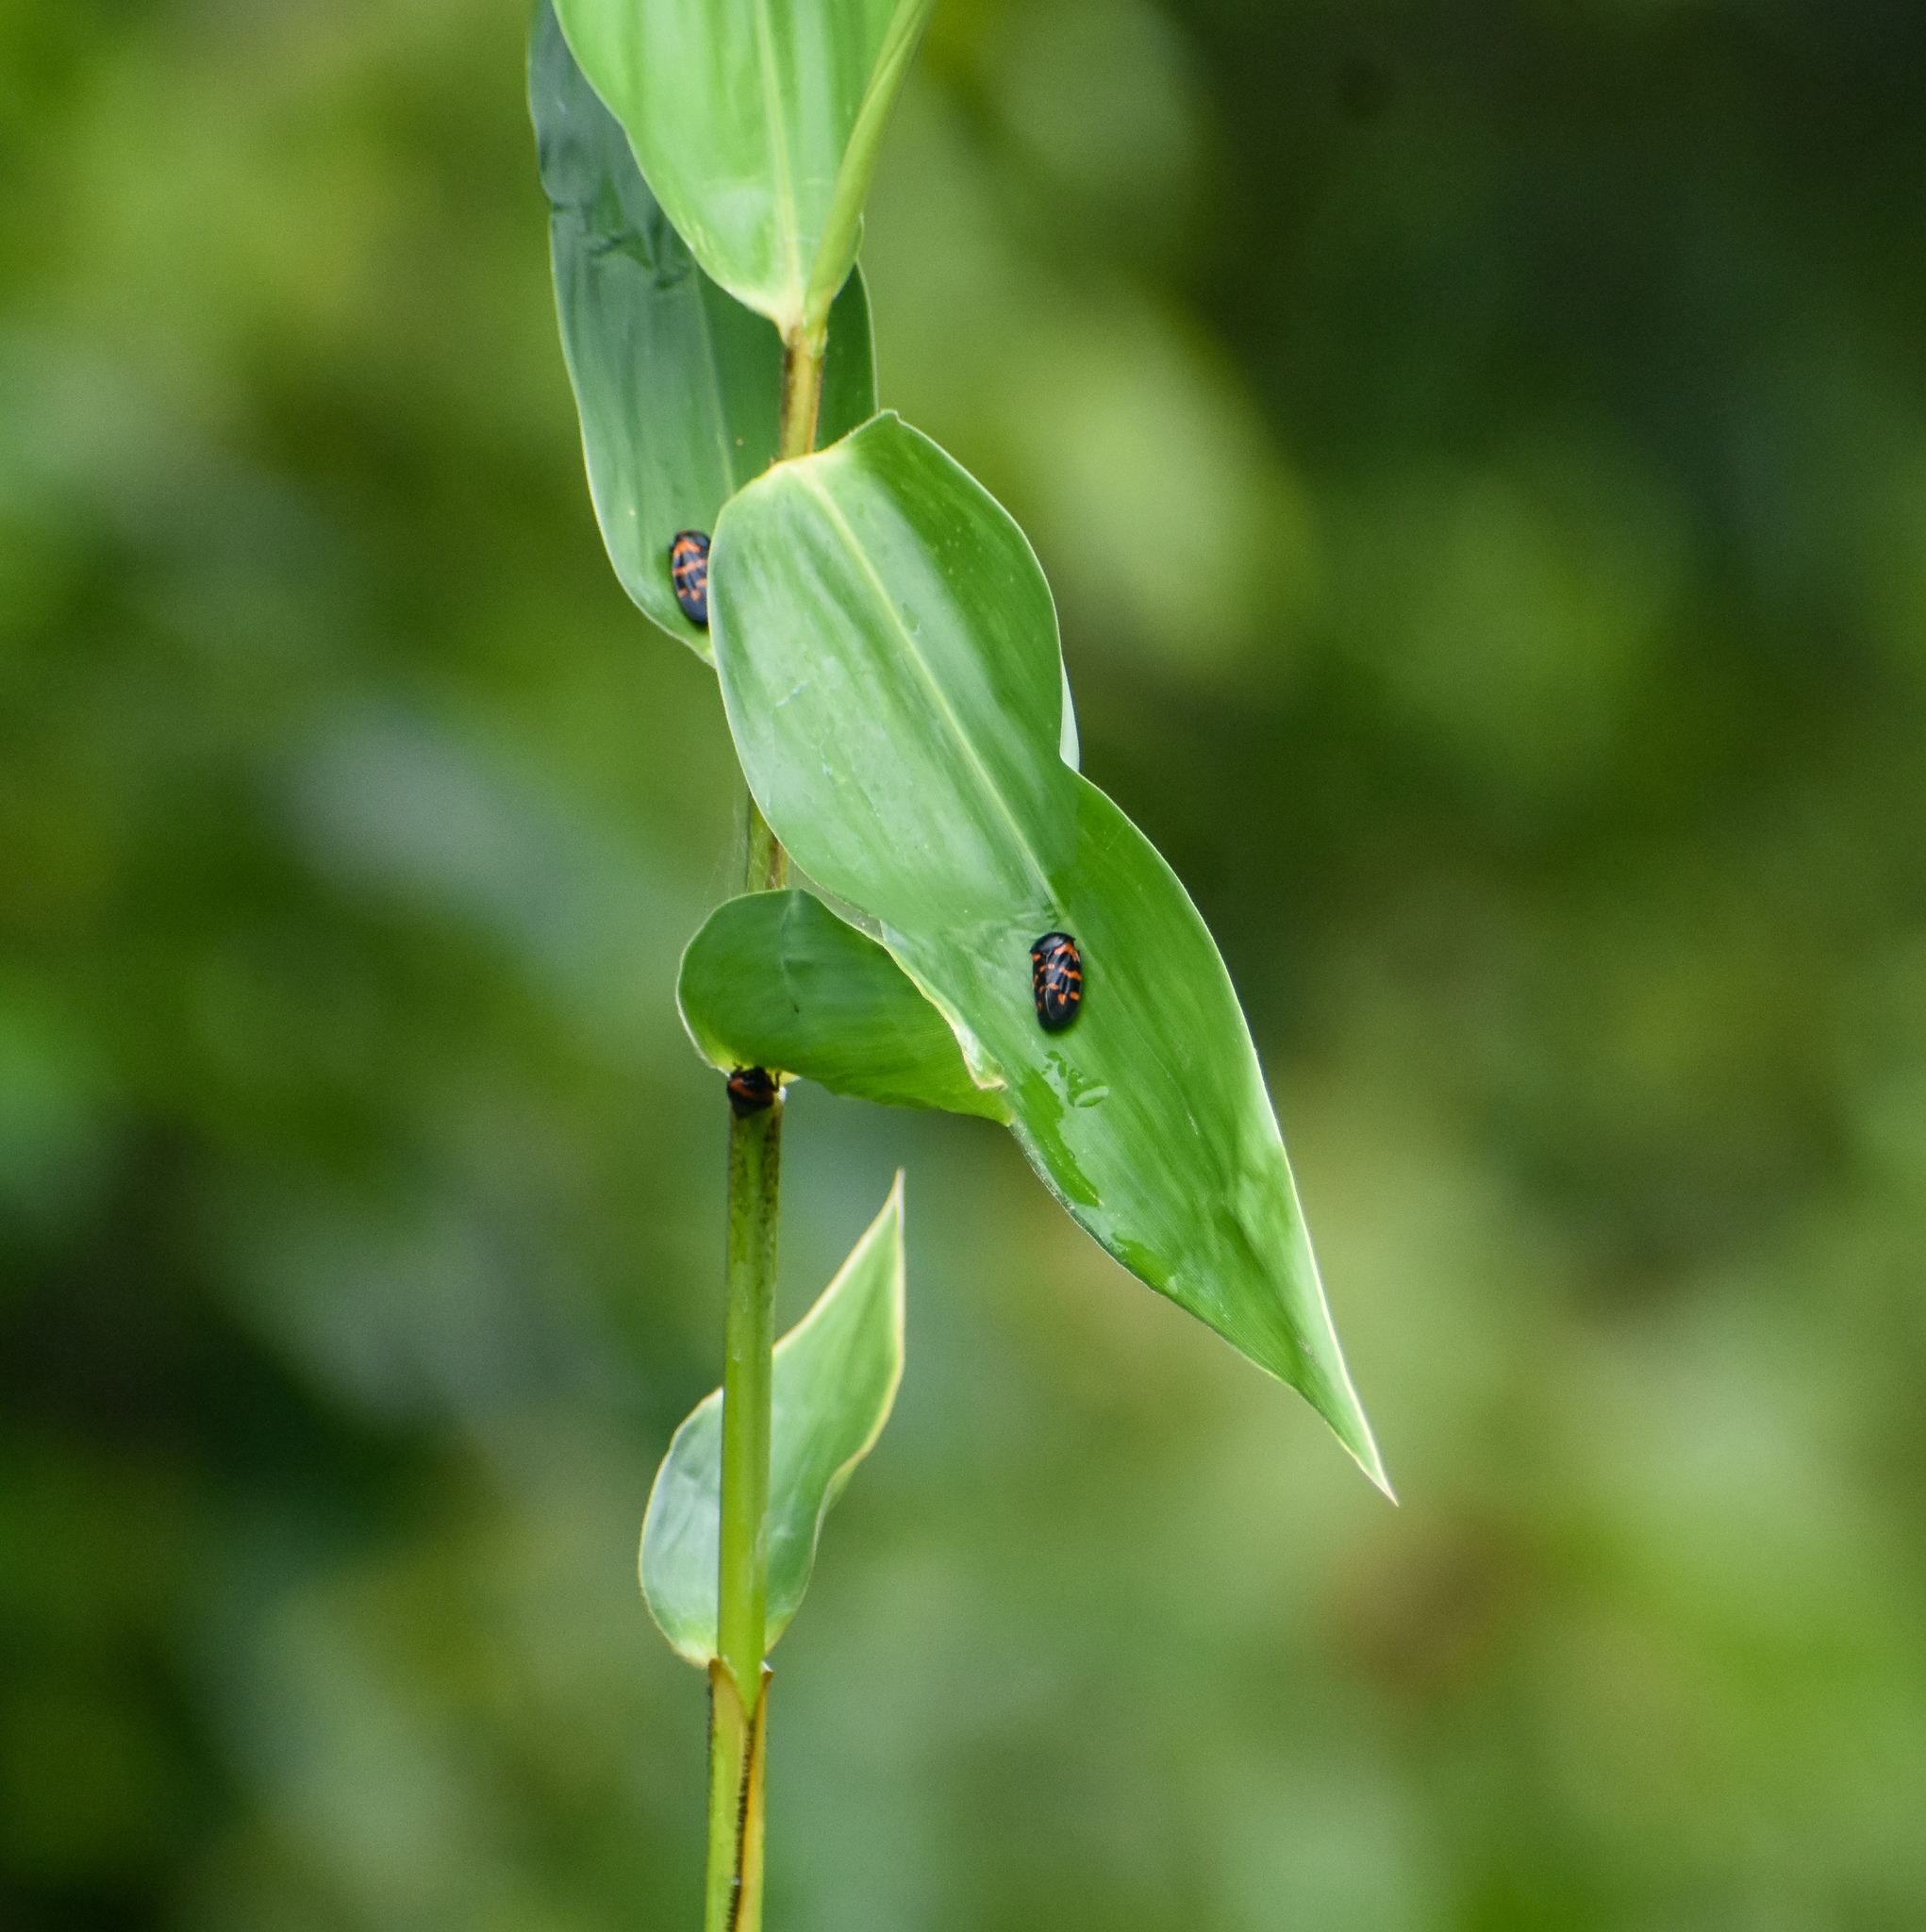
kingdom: Animalia
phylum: Arthropoda
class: Insecta
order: Hemiptera
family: Cercopidae
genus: Cosmoscarta
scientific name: Cosmoscarta dimidiata
